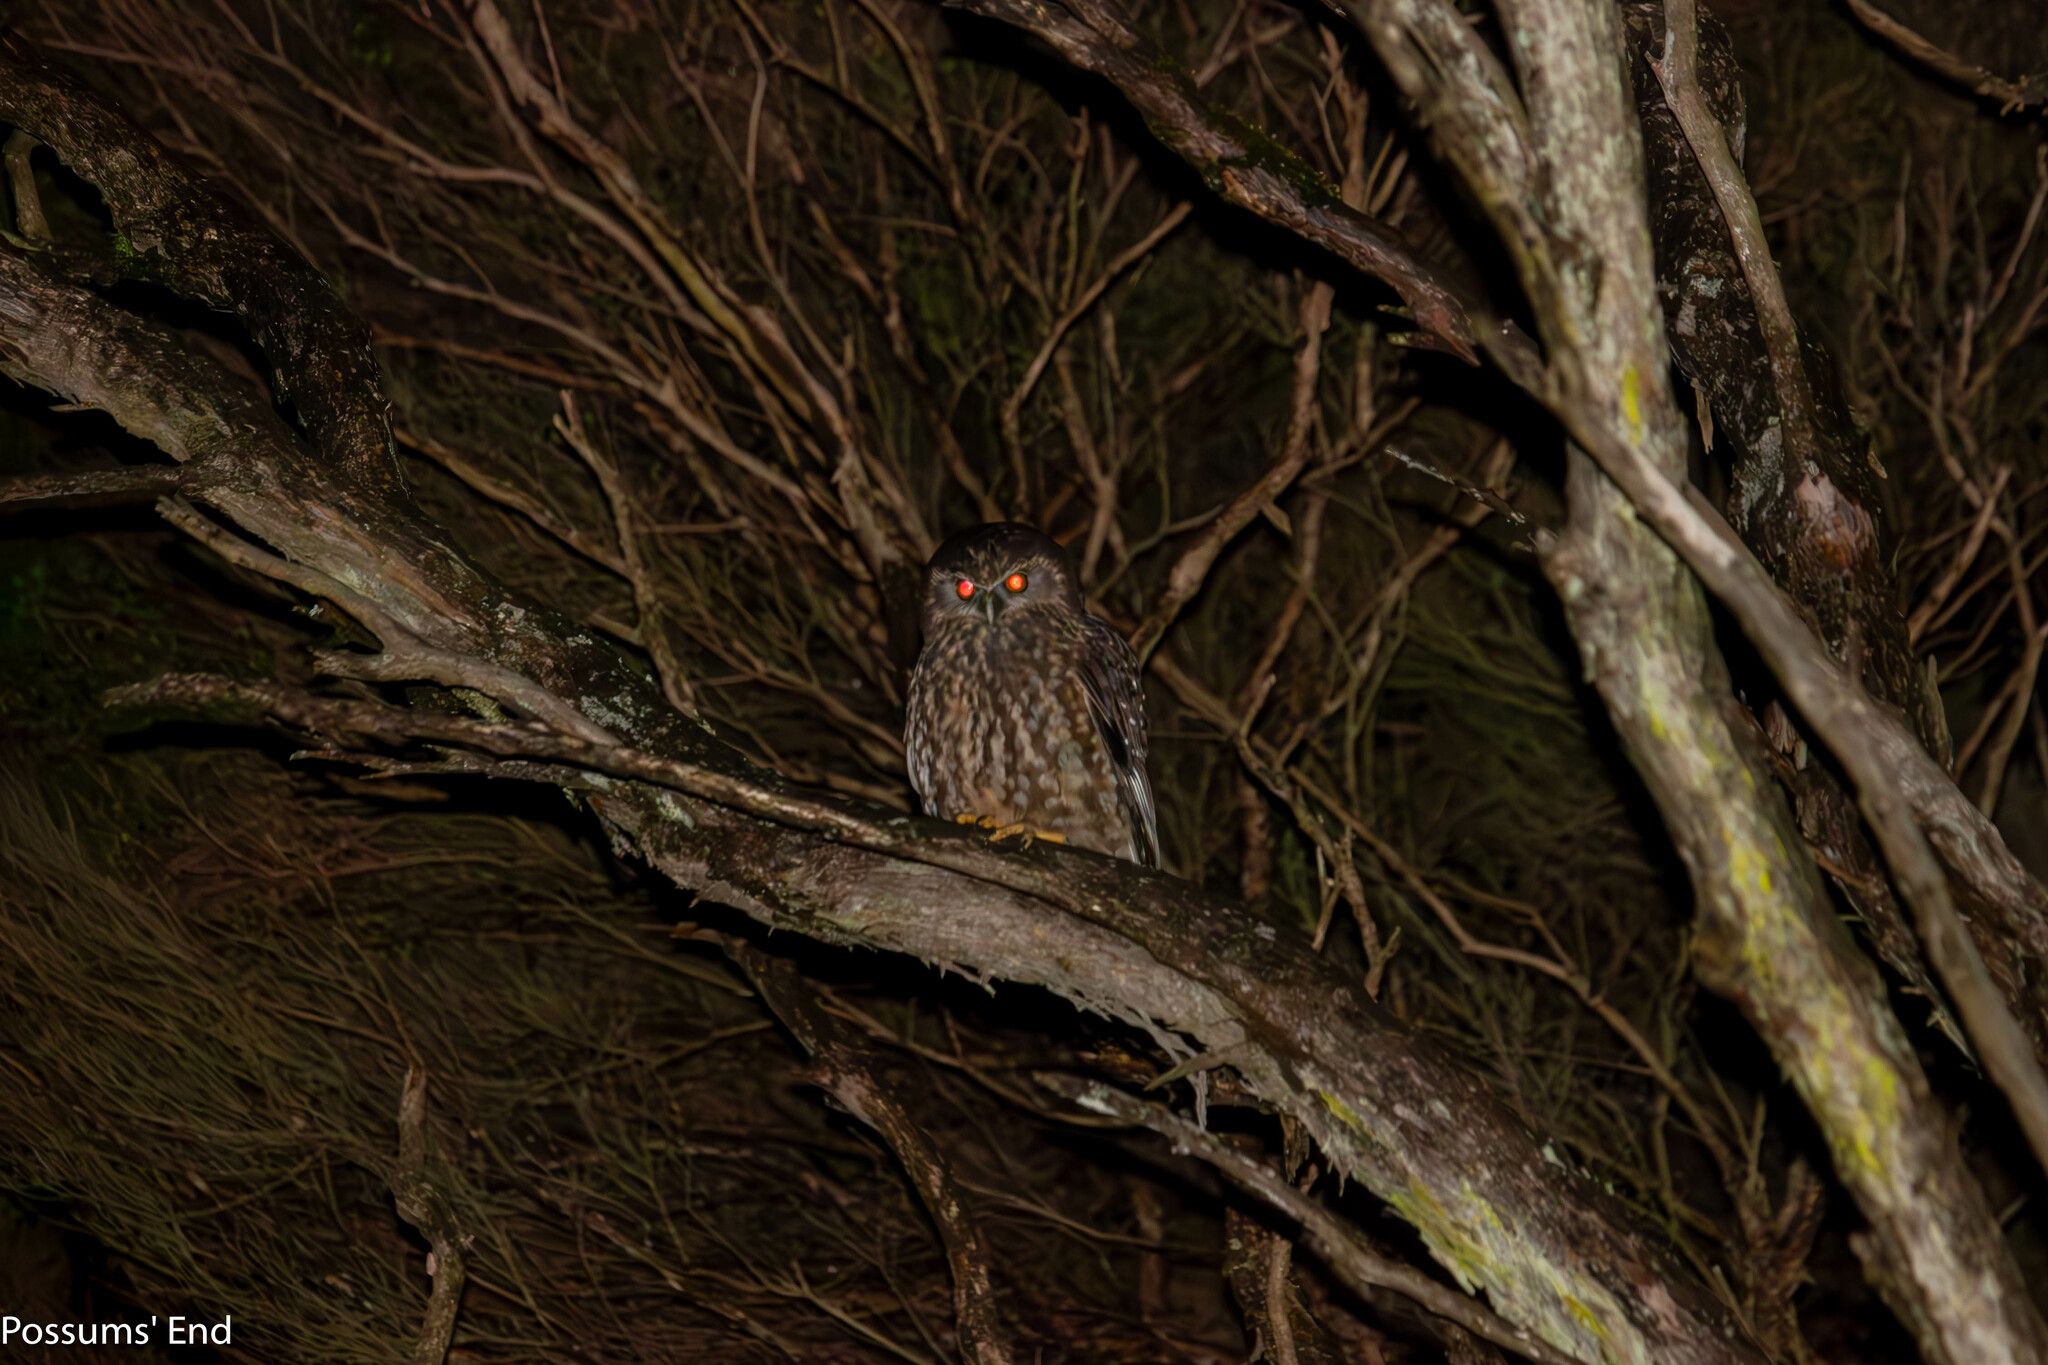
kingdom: Animalia
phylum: Chordata
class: Aves
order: Strigiformes
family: Strigidae
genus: Ninox
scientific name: Ninox novaeseelandiae
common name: Morepork
